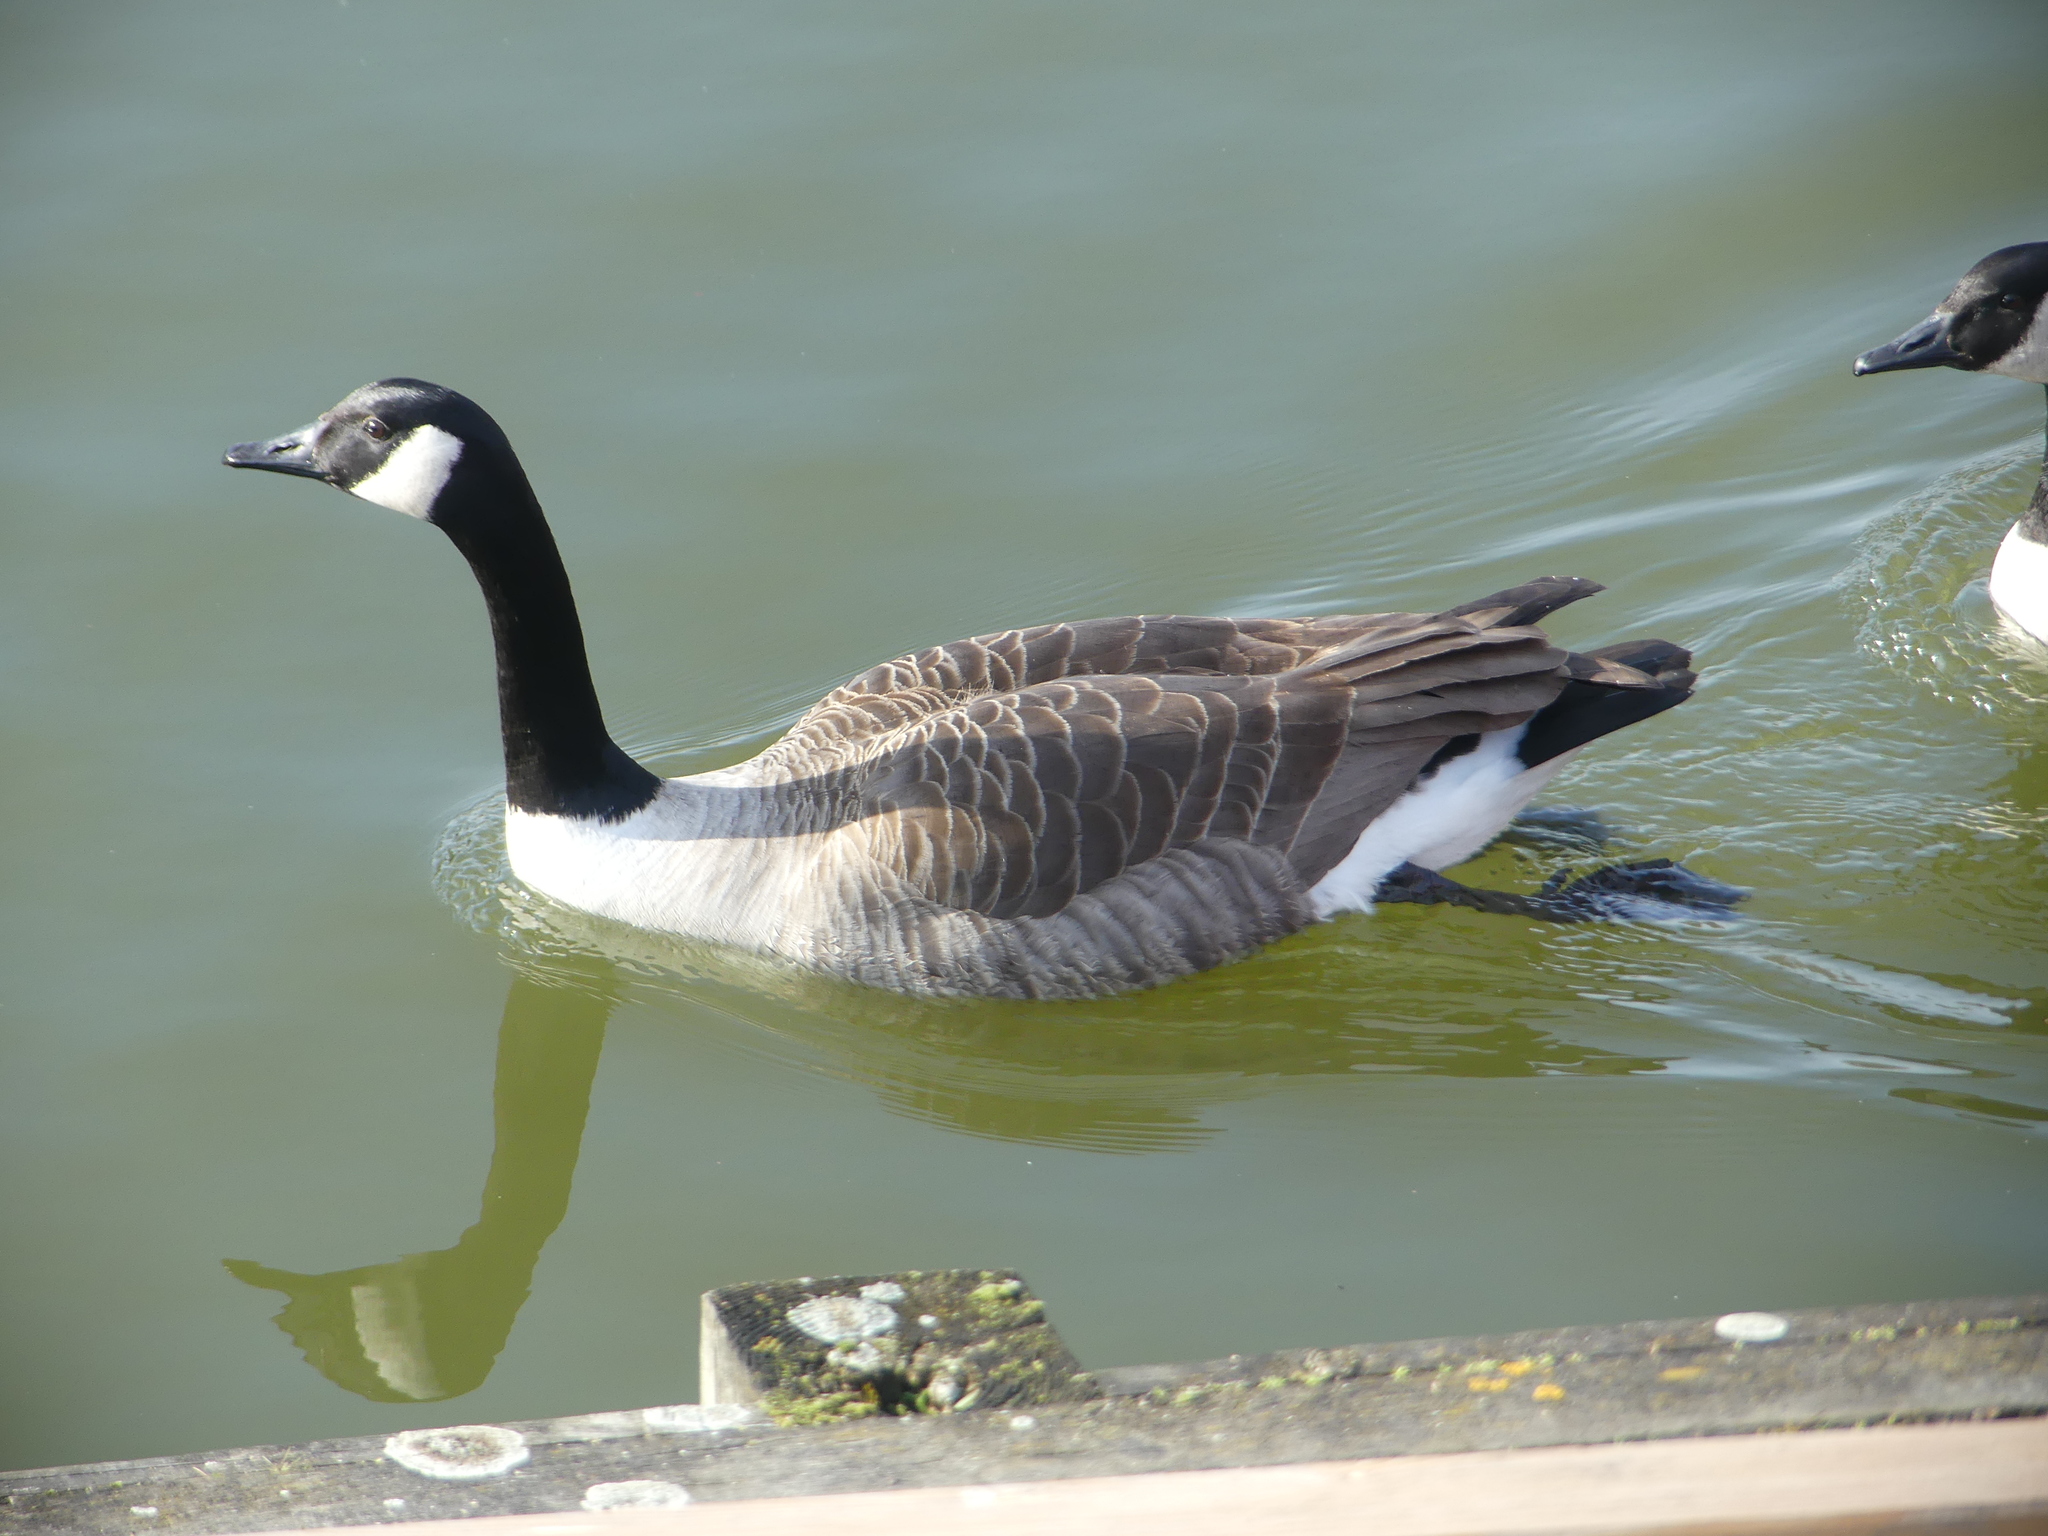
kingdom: Animalia
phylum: Chordata
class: Aves
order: Anseriformes
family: Anatidae
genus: Branta
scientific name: Branta canadensis
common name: Canada goose
